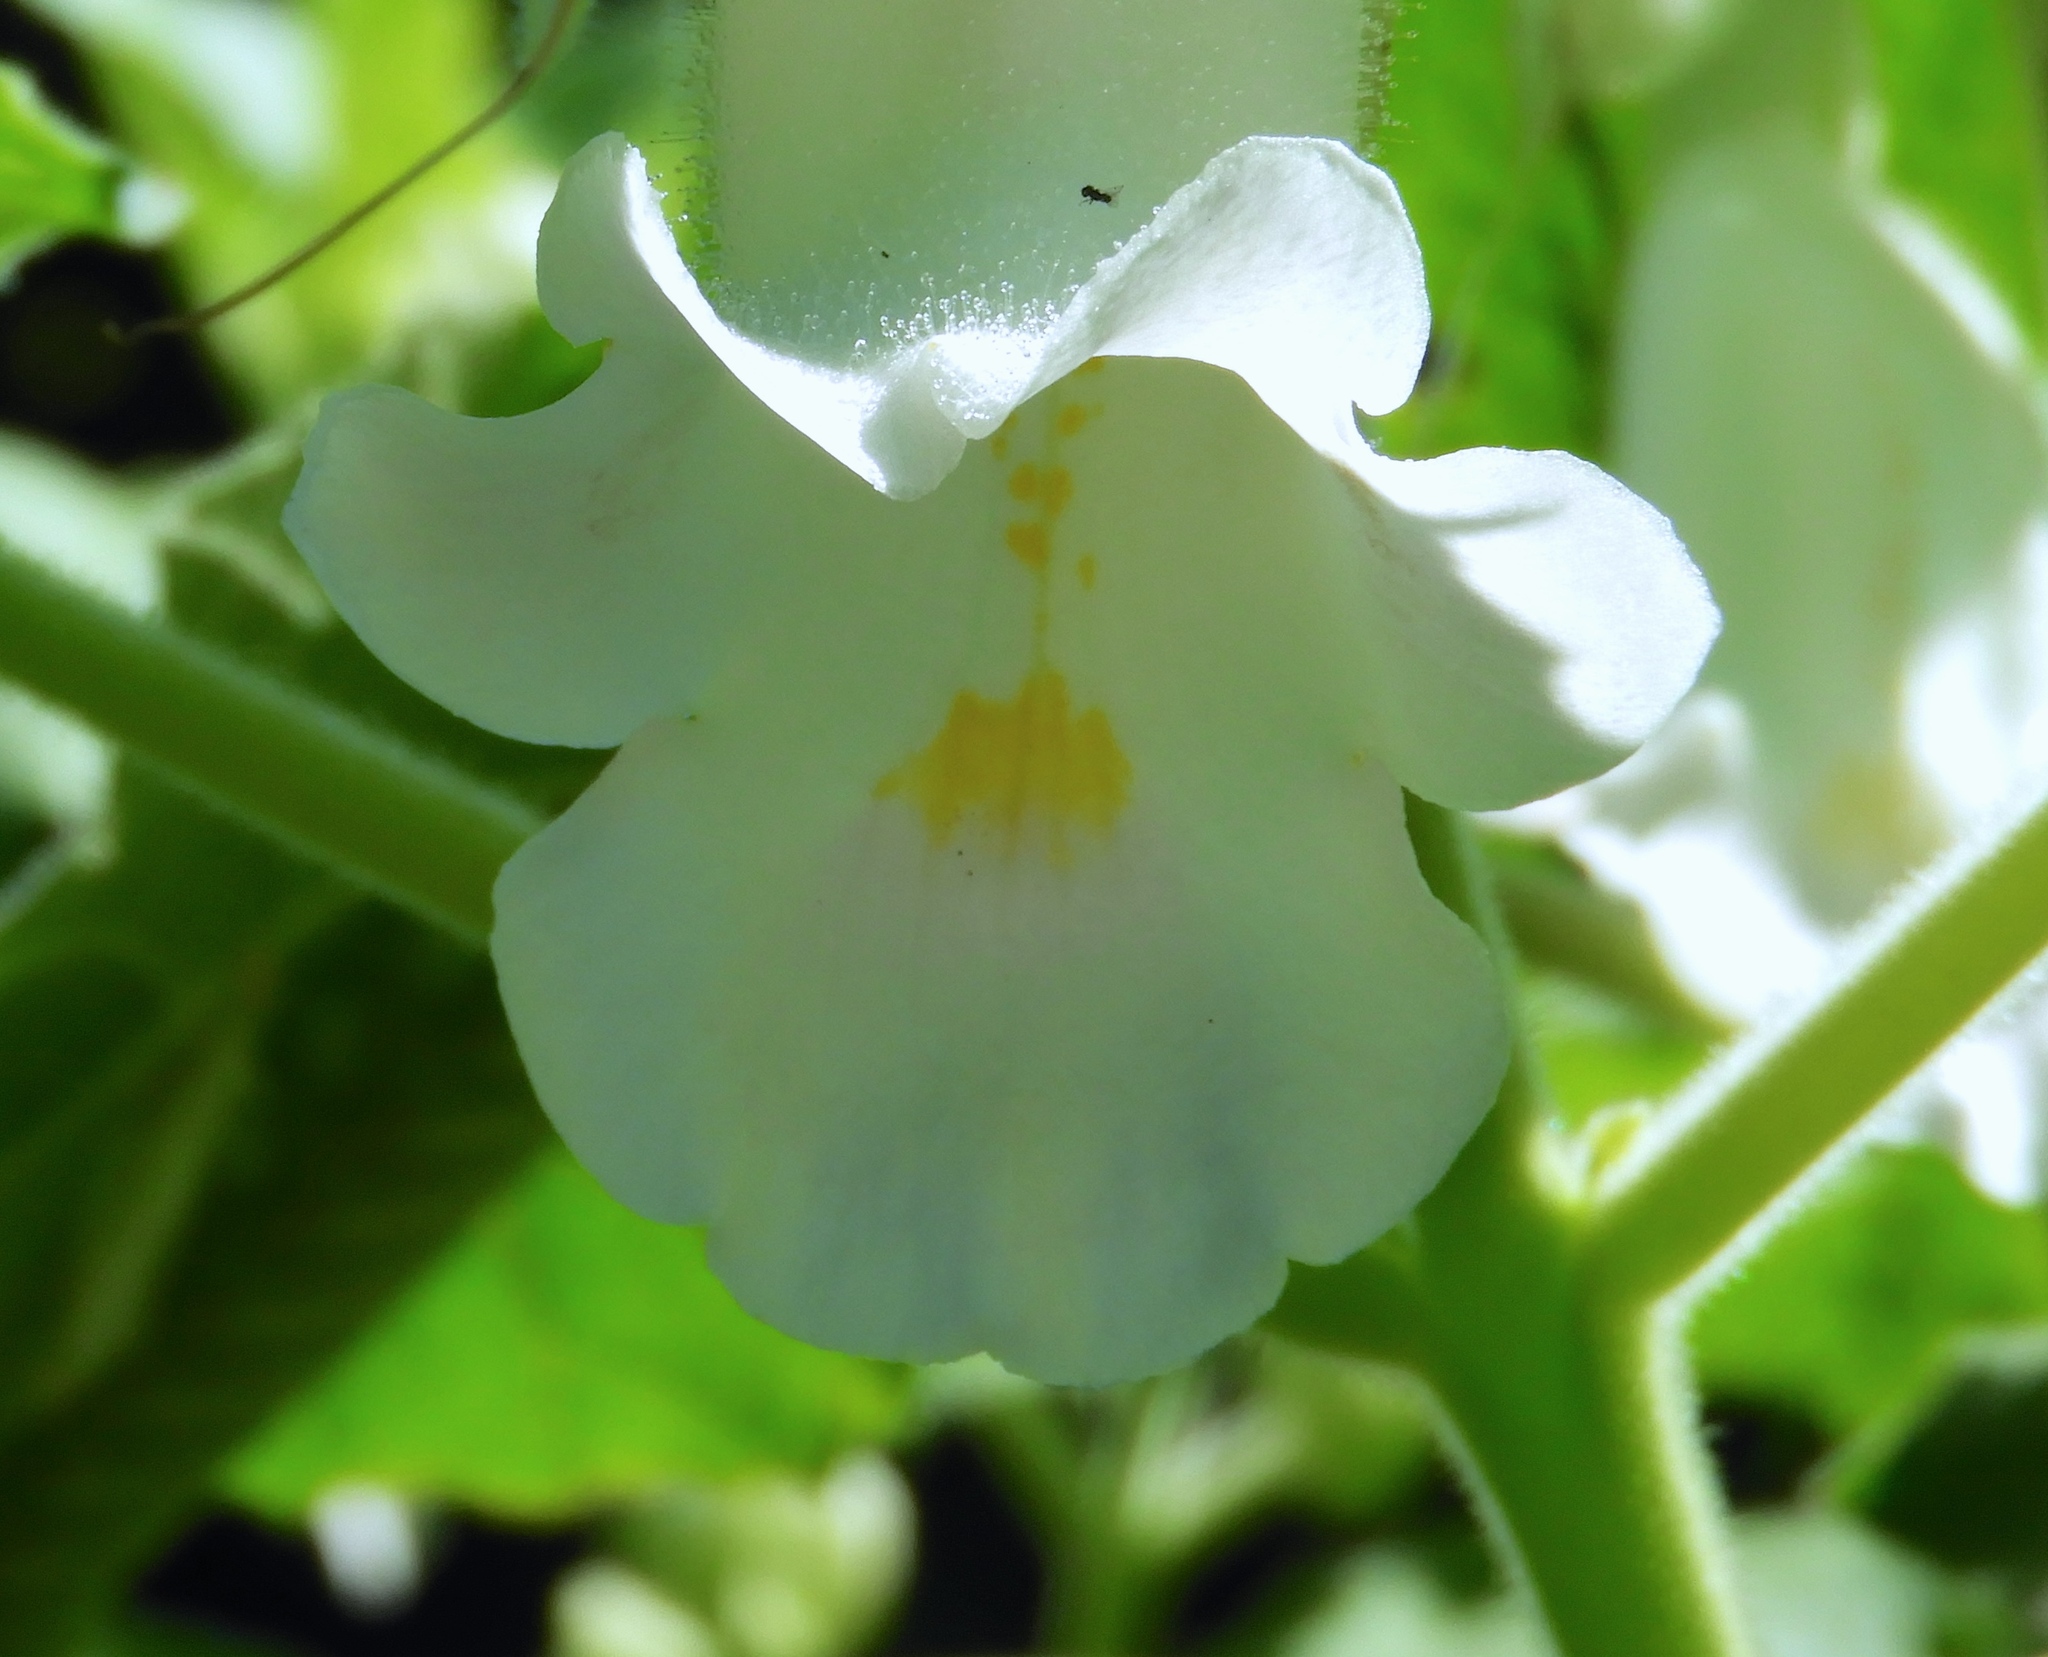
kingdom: Plantae
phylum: Tracheophyta
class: Magnoliopsida
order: Lamiales
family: Martyniaceae
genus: Martynia
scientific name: Martynia annua
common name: Tiger's-claw
